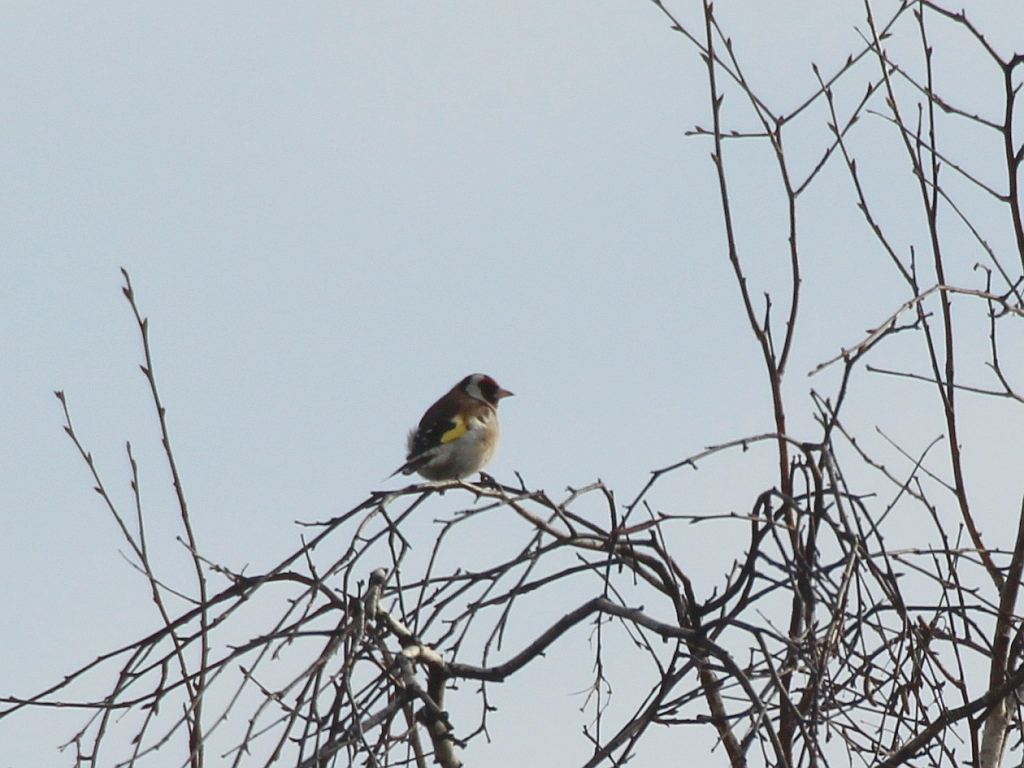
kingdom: Animalia
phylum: Chordata
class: Aves
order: Passeriformes
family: Fringillidae
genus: Carduelis
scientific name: Carduelis carduelis
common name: European goldfinch
